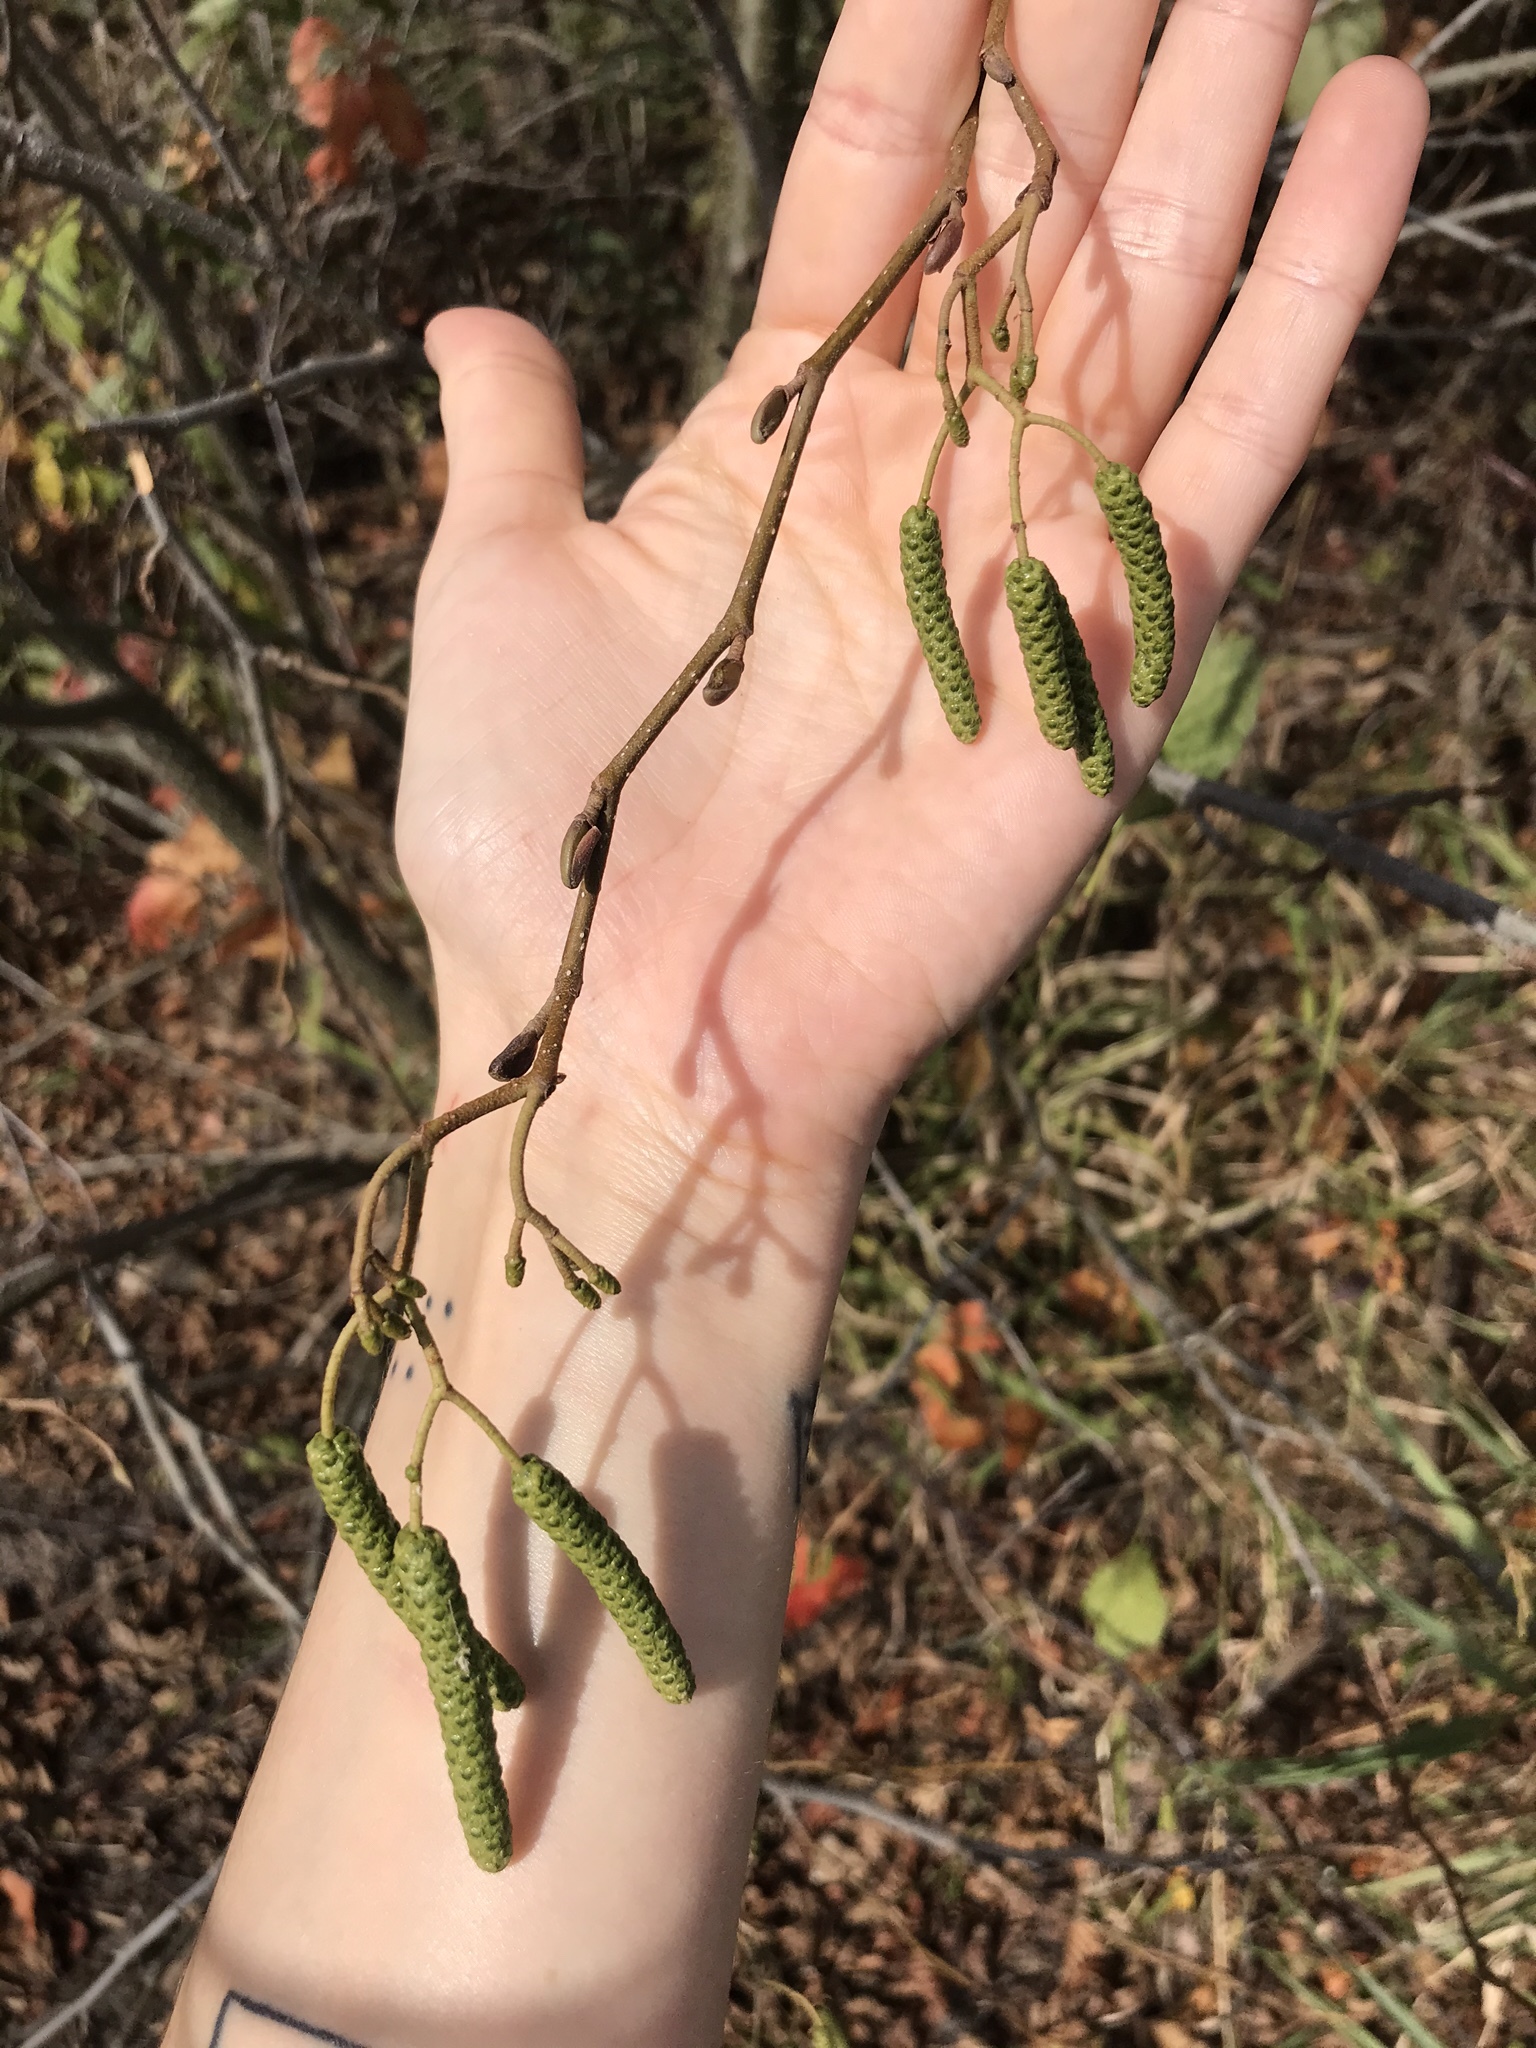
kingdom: Plantae
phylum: Tracheophyta
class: Magnoliopsida
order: Fagales
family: Betulaceae
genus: Betula
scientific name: Betula nigra
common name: Black birch
